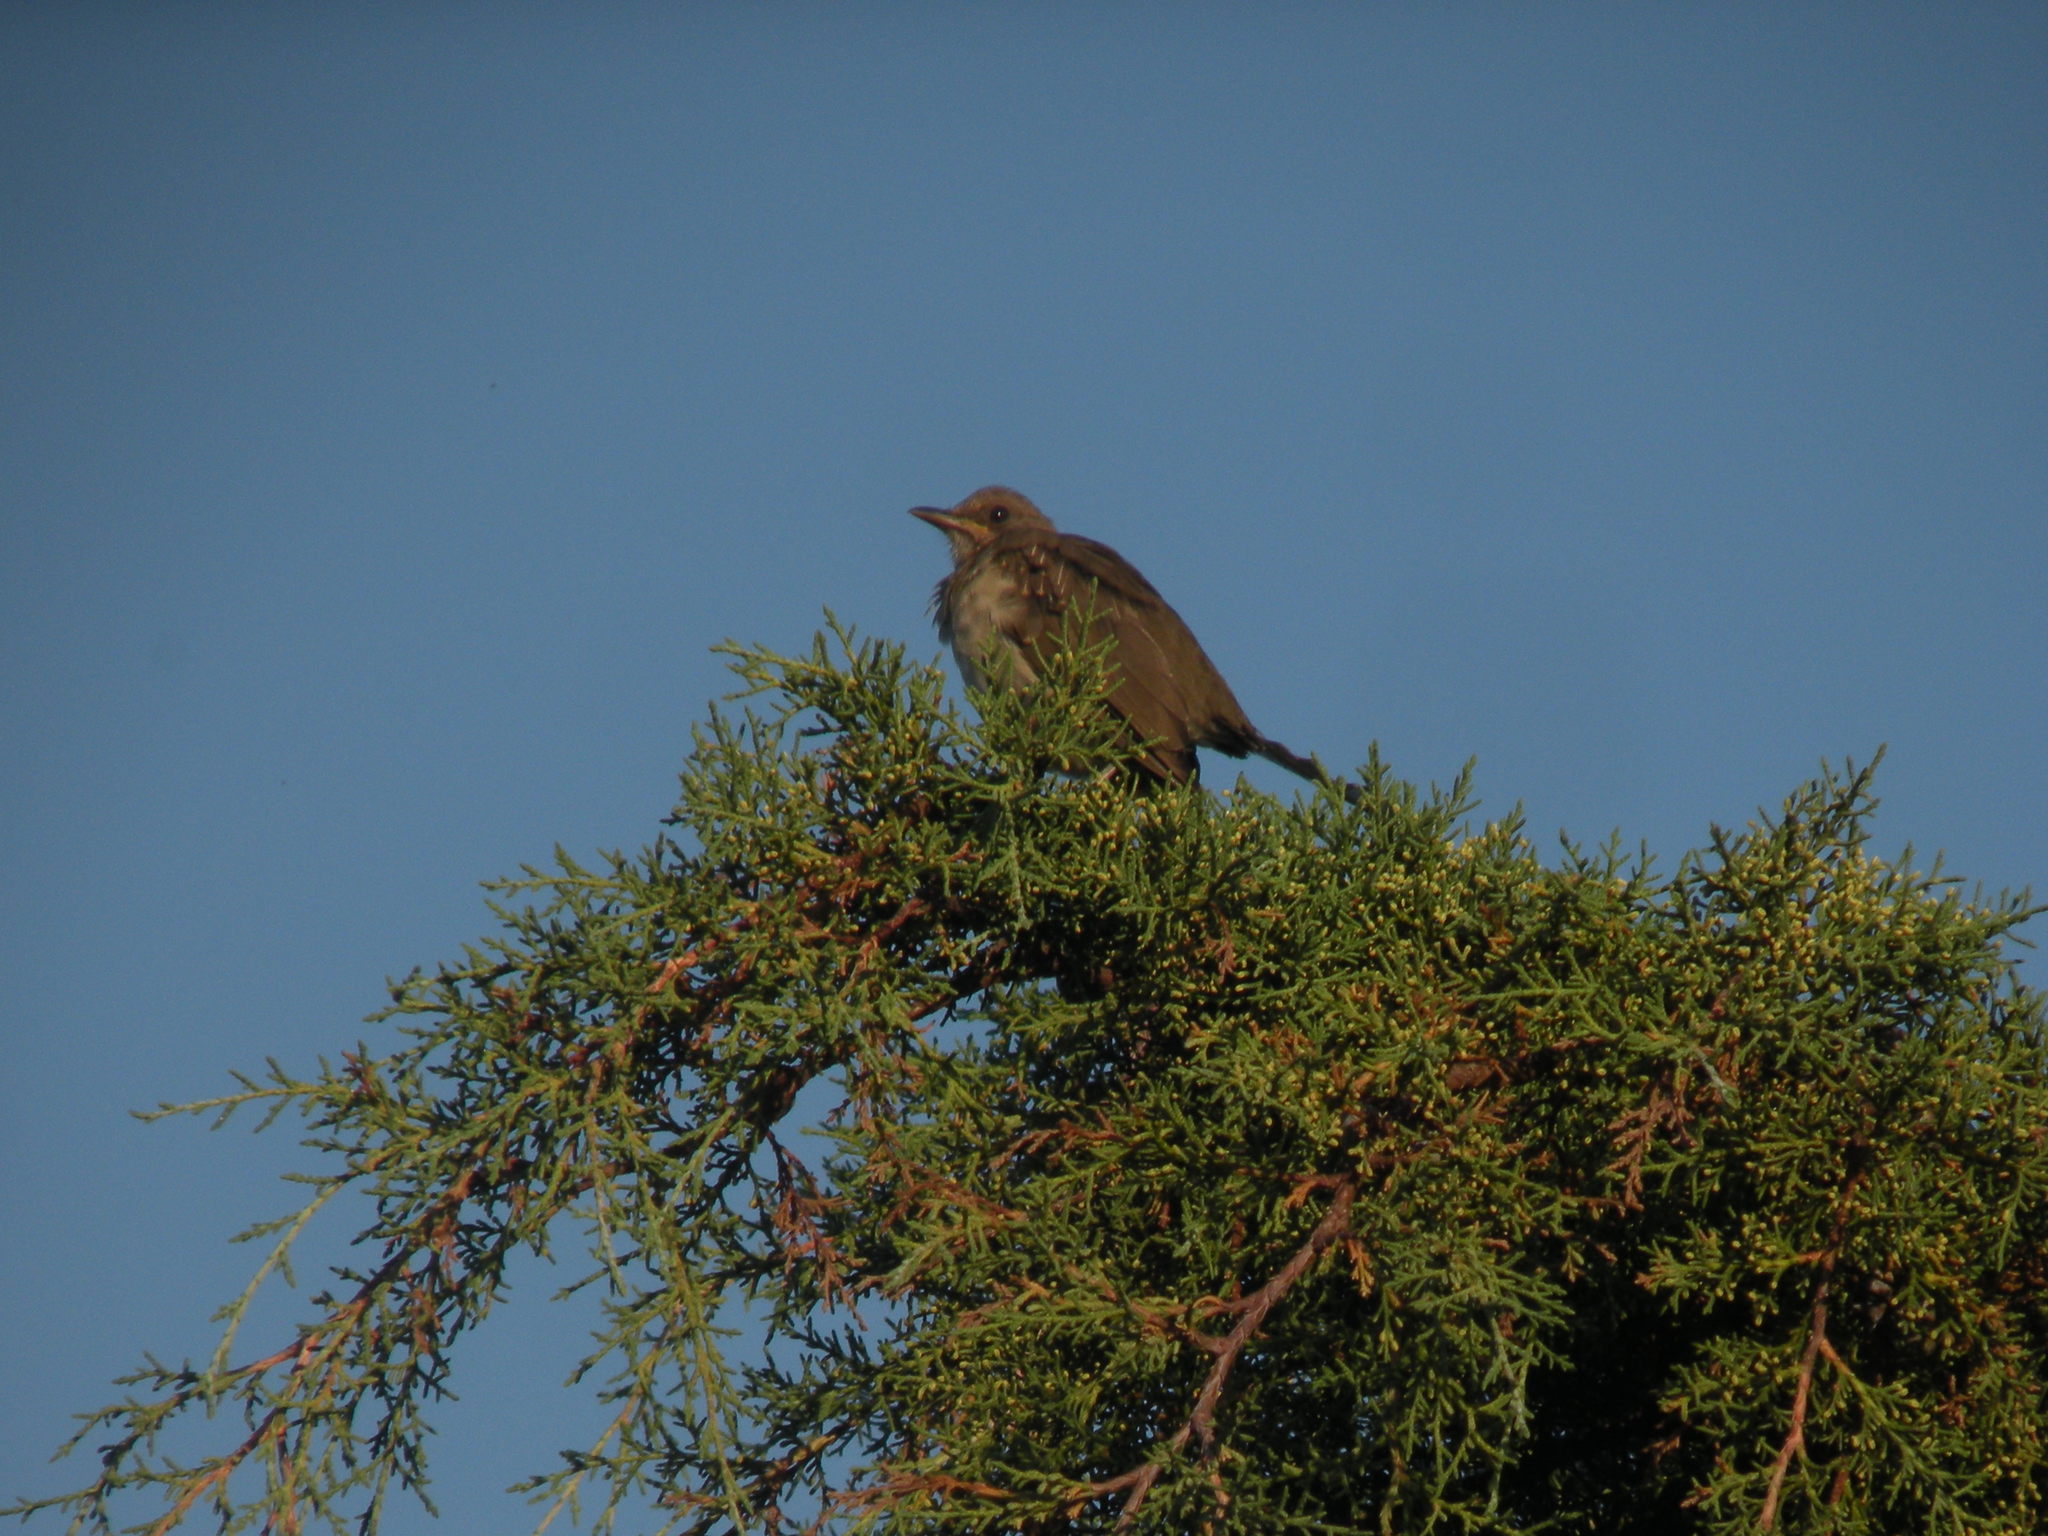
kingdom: Animalia
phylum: Chordata
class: Aves
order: Passeriformes
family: Turdidae
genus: Turdus
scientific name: Turdus amaurochalinus
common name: Creamy-bellied thrush
